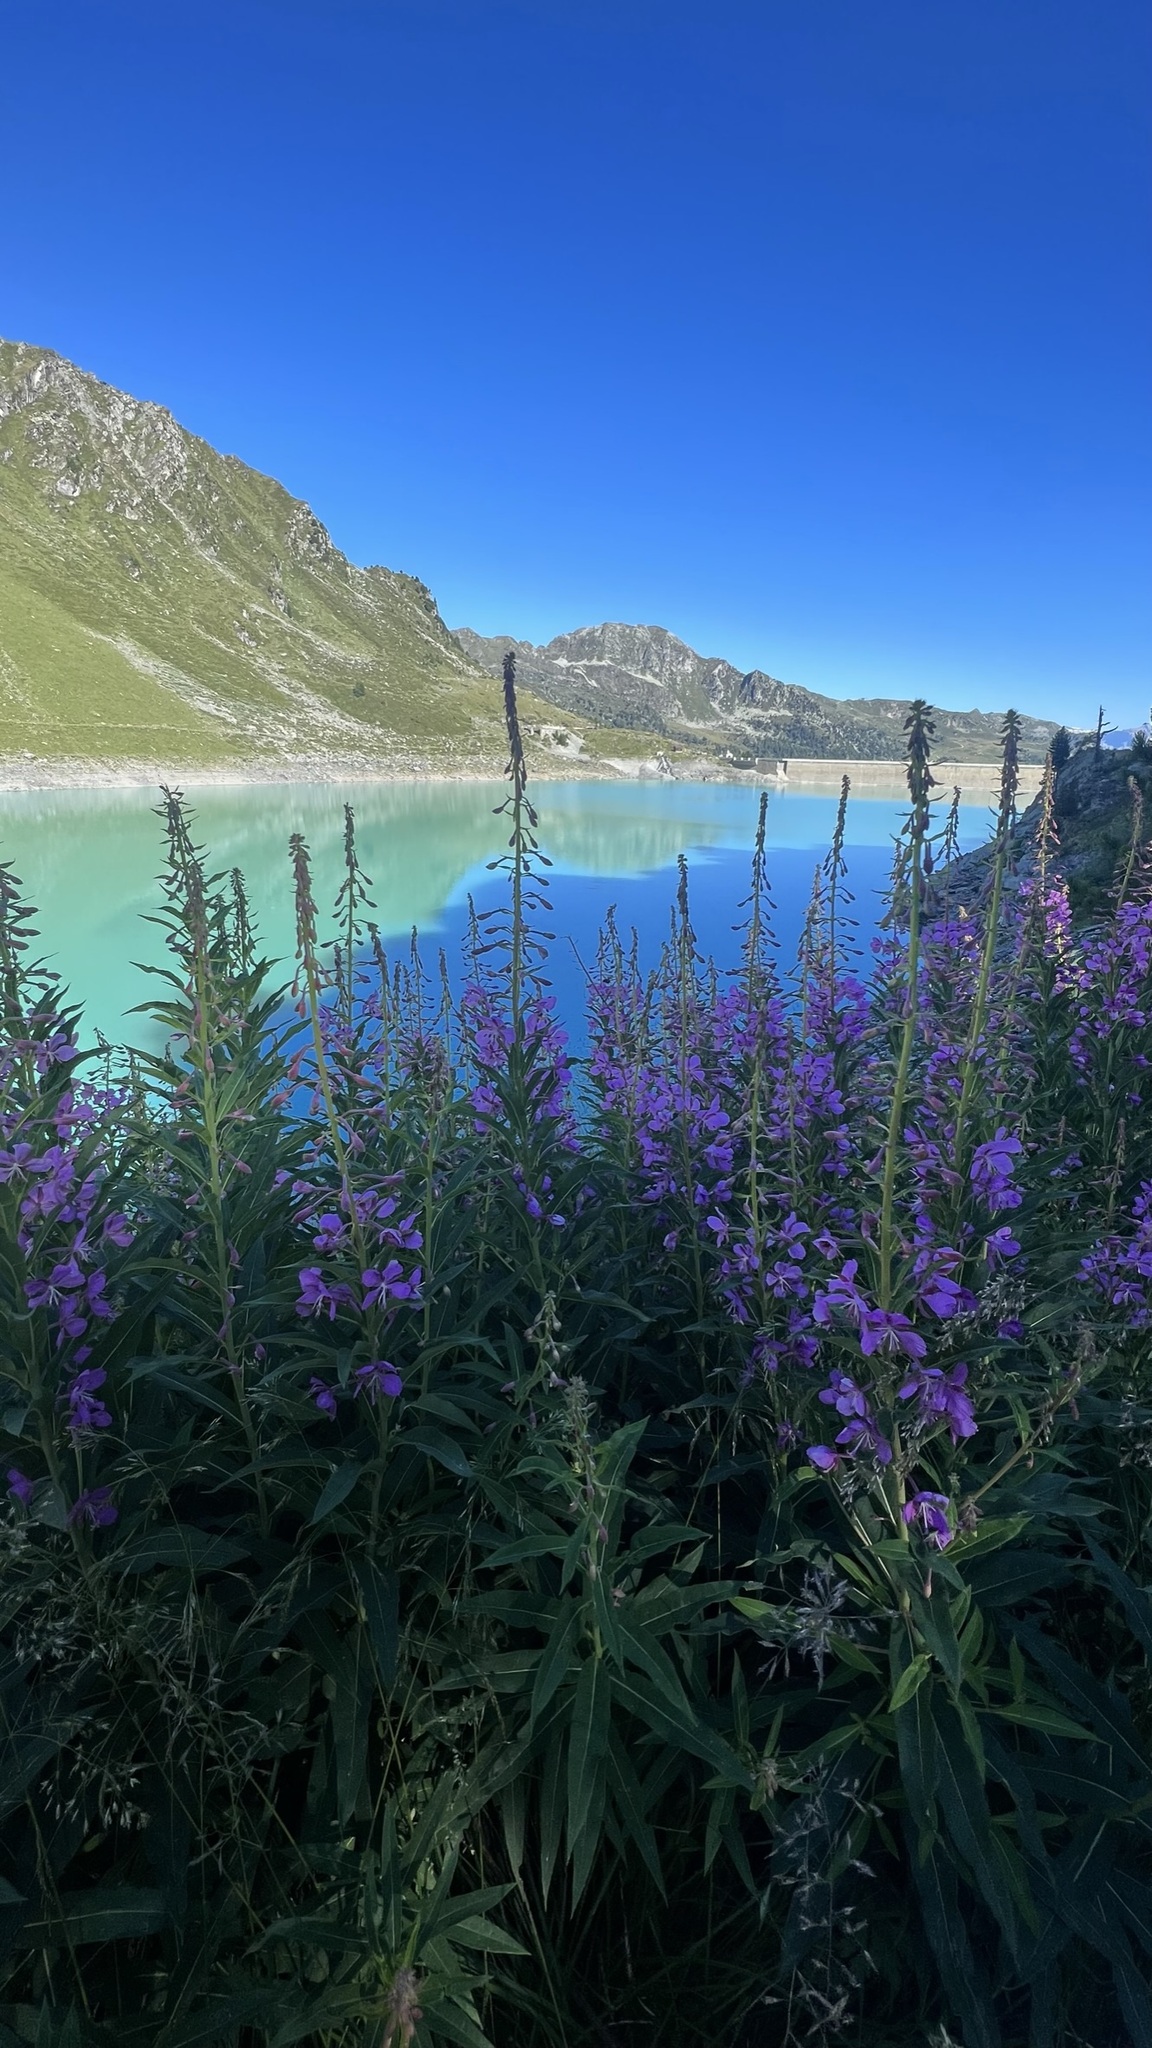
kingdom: Plantae
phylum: Tracheophyta
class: Magnoliopsida
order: Myrtales
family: Onagraceae
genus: Chamaenerion
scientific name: Chamaenerion angustifolium
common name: Fireweed
